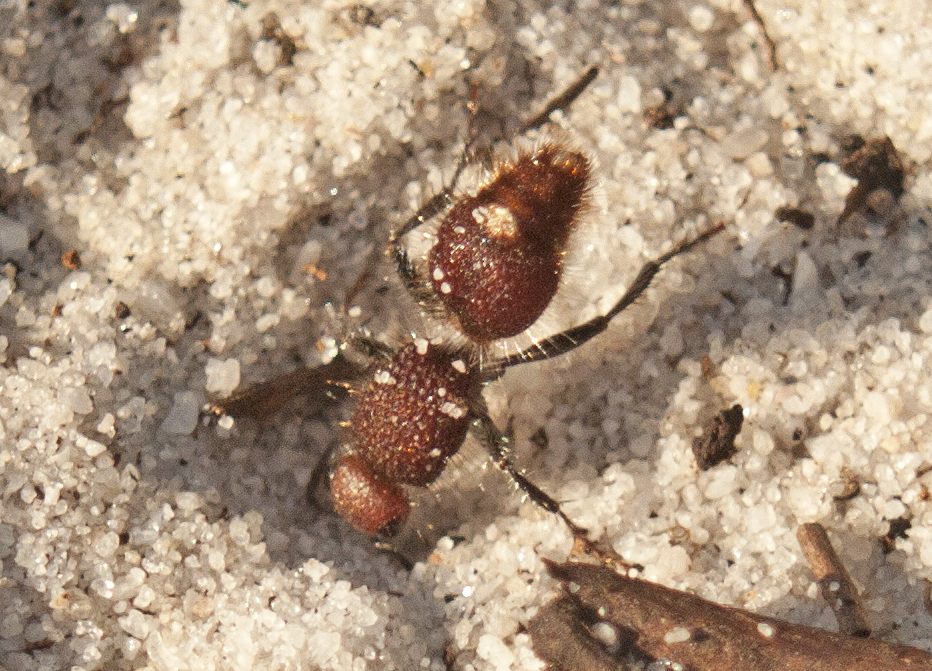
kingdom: Animalia
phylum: Arthropoda
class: Insecta
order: Hymenoptera
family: Mutillidae
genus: Ephutomorpha
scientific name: Ephutomorpha
